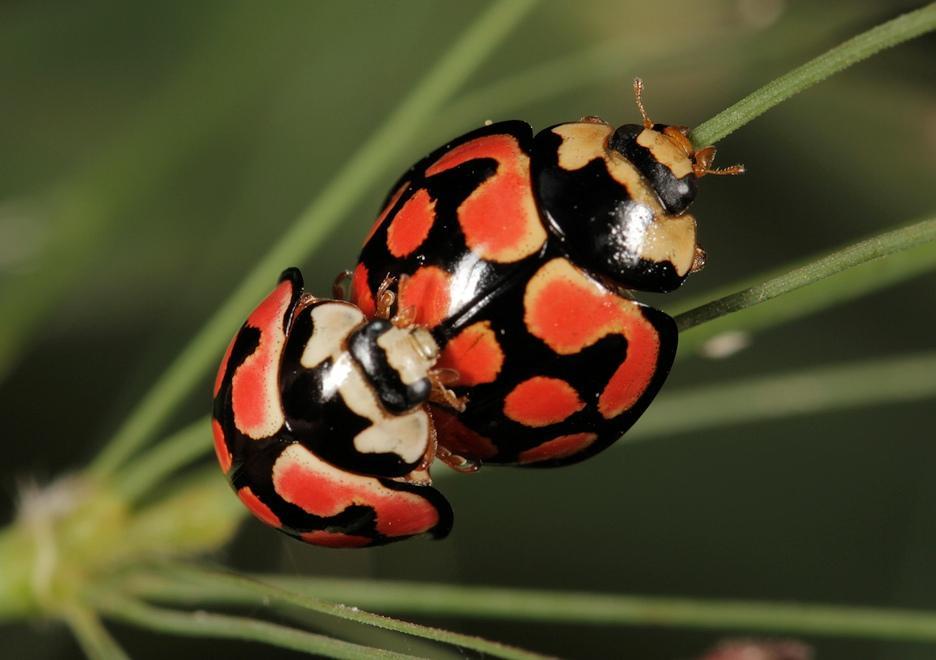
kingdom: Animalia
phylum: Arthropoda
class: Insecta
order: Coleoptera
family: Coccinellidae
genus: Cheilomenes
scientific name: Cheilomenes lunata
